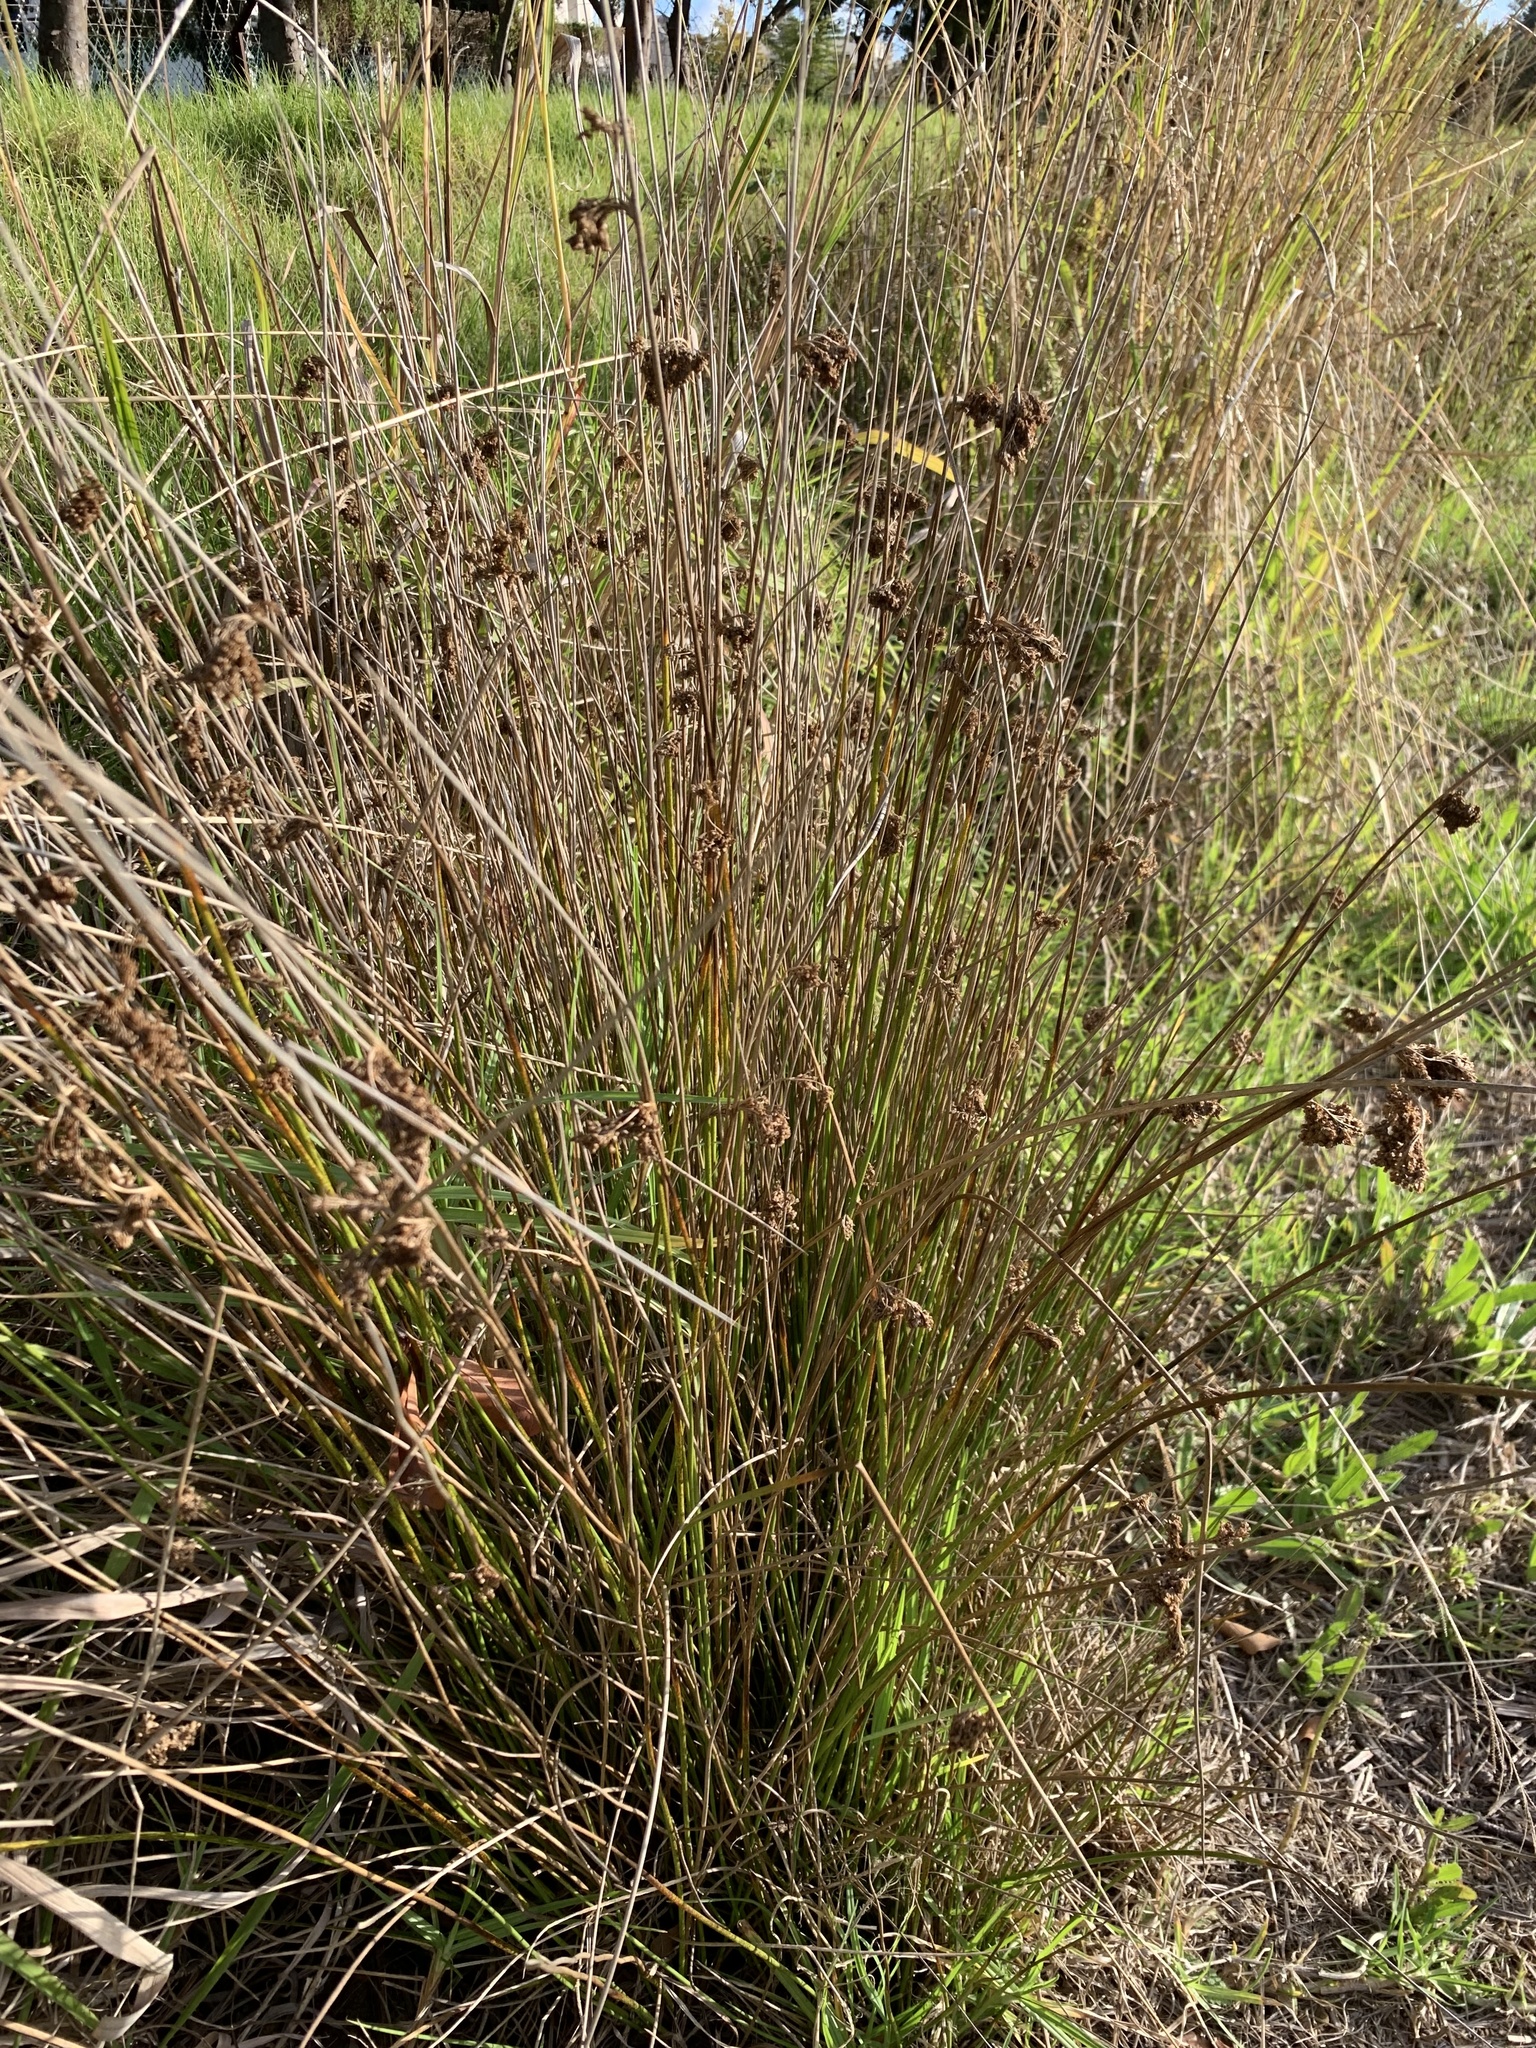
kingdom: Plantae
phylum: Tracheophyta
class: Liliopsida
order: Poales
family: Juncaceae
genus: Juncus
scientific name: Juncus effusus
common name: Soft rush
